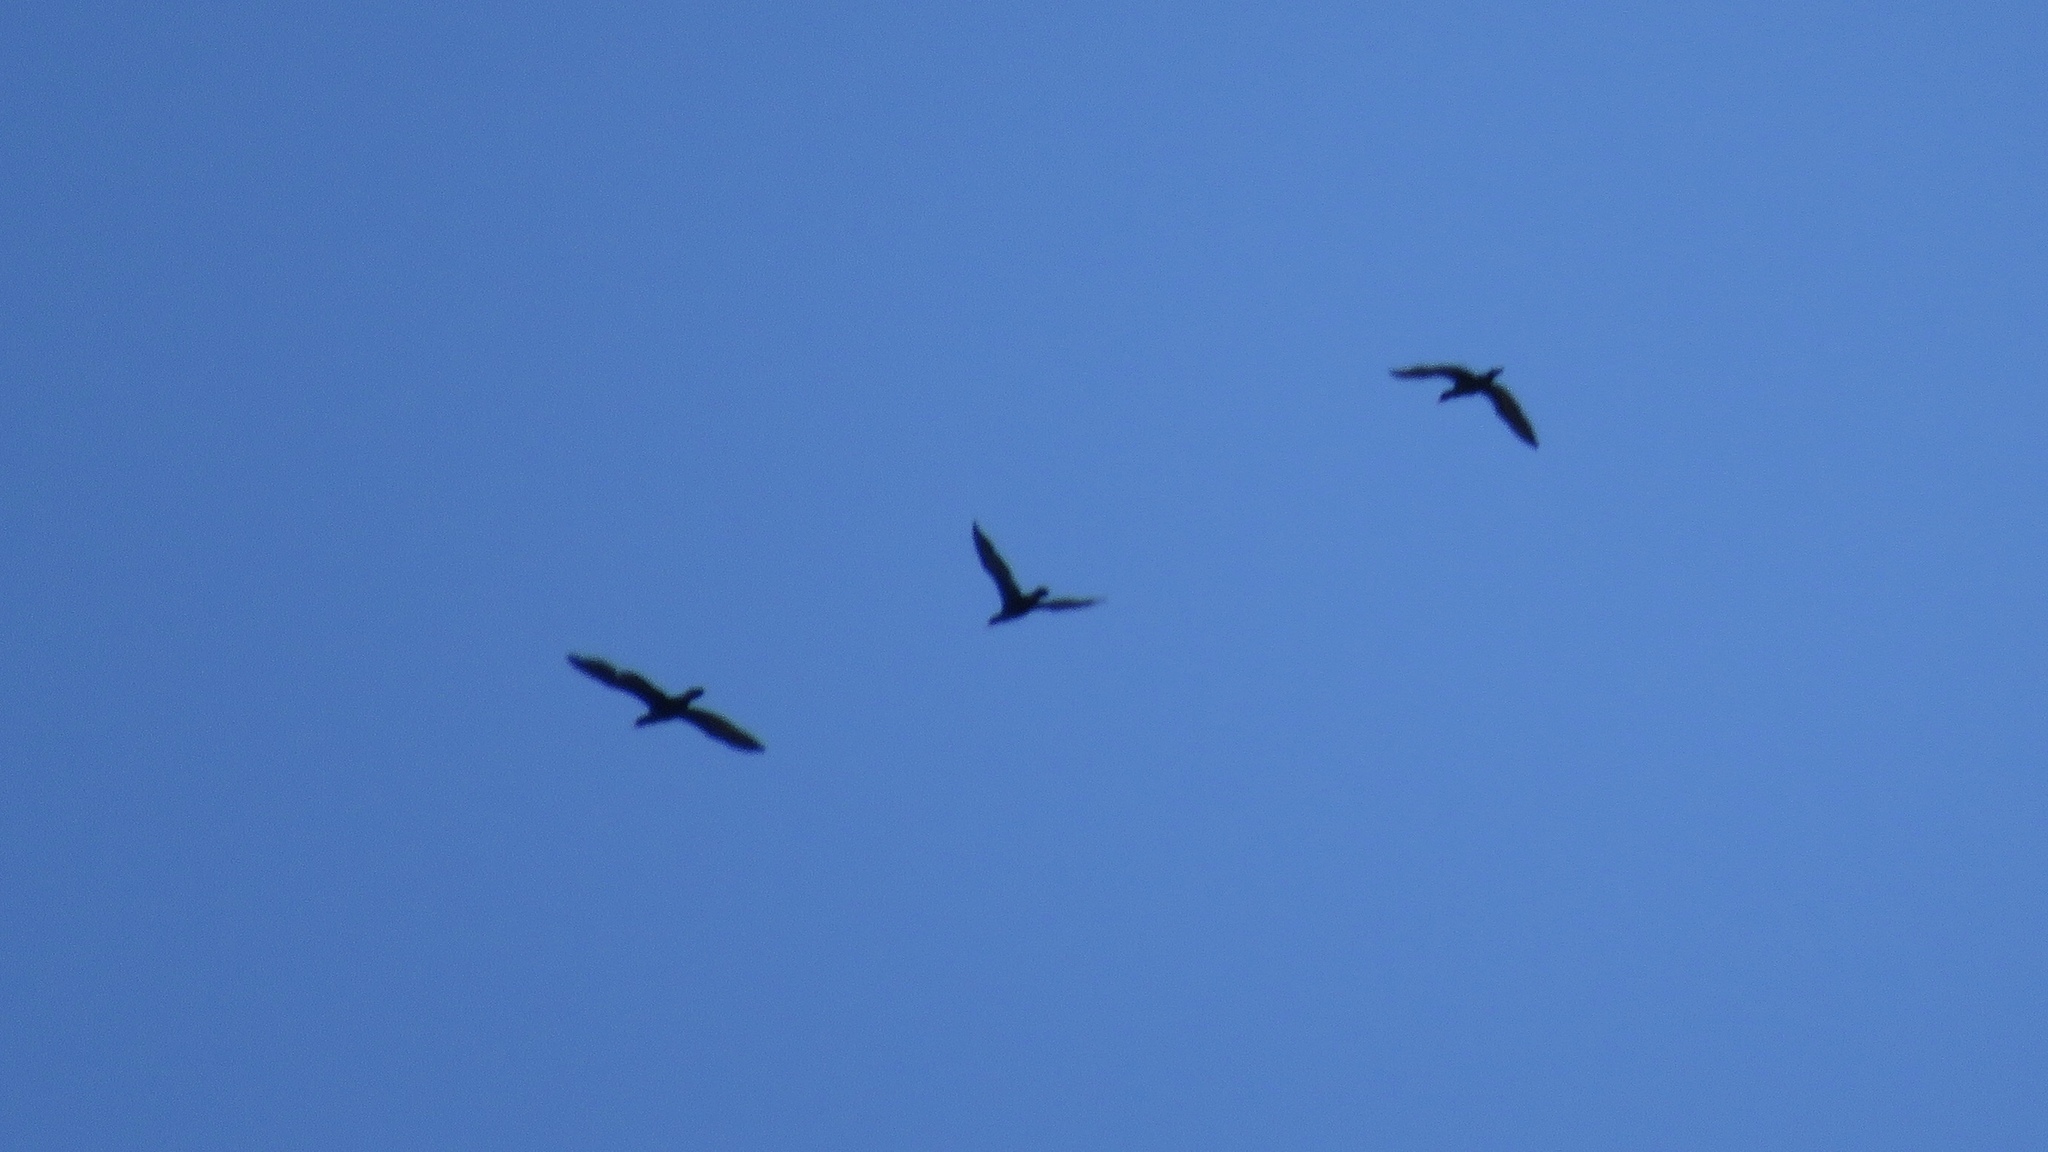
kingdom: Animalia
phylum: Chordata
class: Aves
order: Suliformes
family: Phalacrocoracidae
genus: Phalacrocorax
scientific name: Phalacrocorax auritus
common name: Double-crested cormorant
